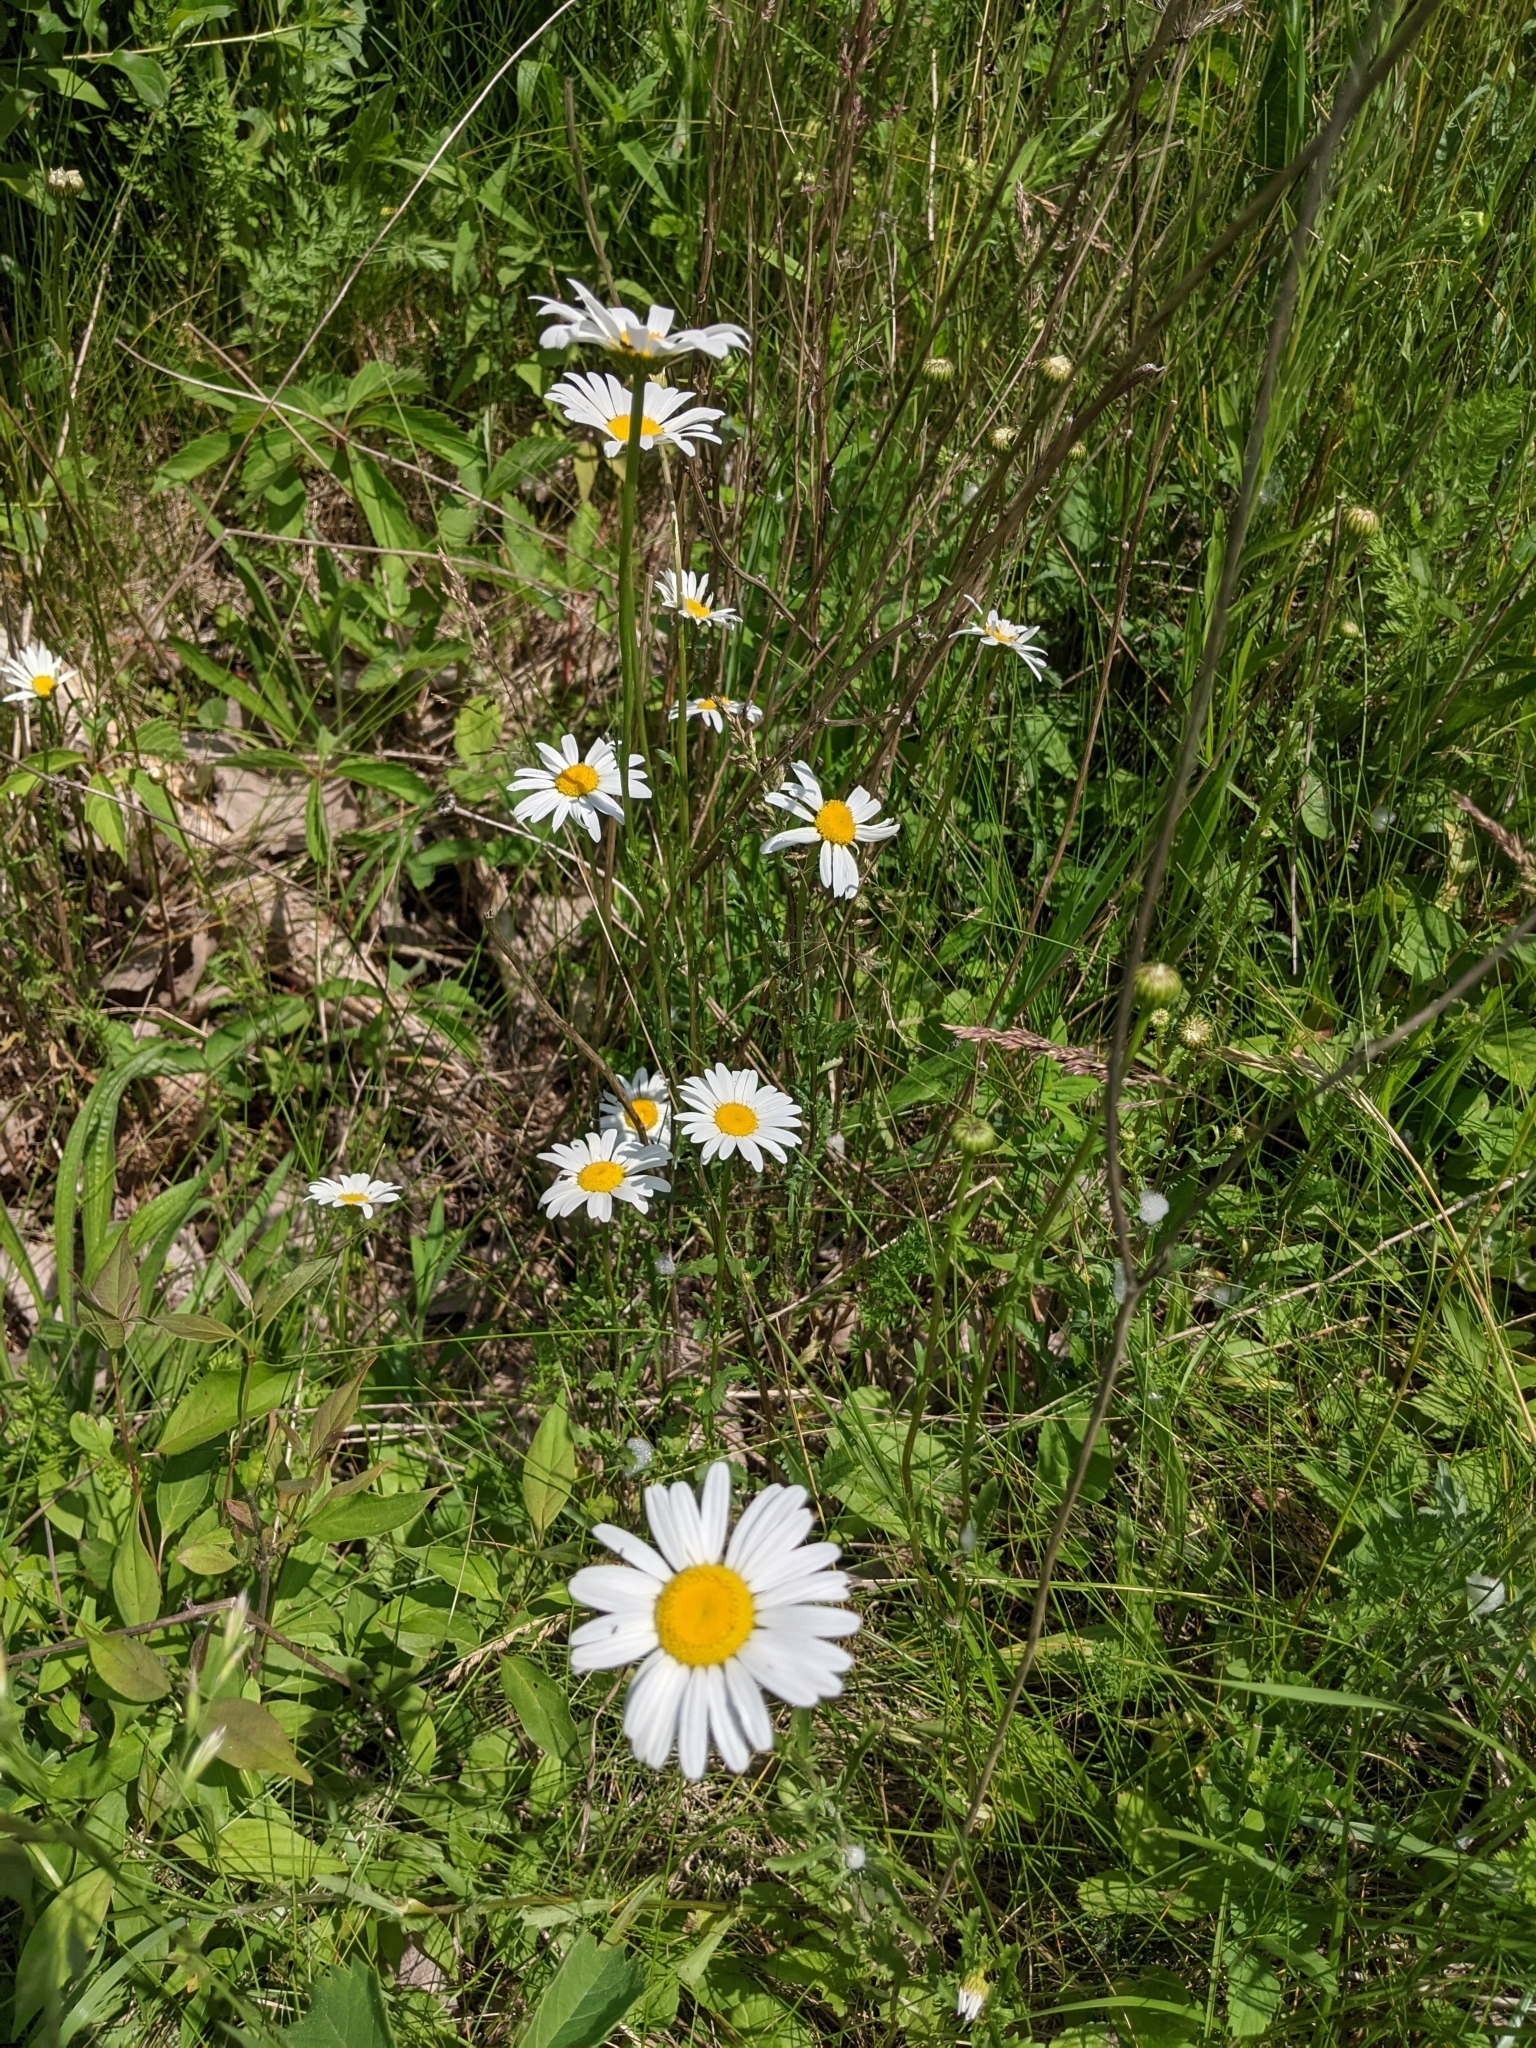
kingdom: Plantae
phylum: Tracheophyta
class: Magnoliopsida
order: Asterales
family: Asteraceae
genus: Leucanthemum
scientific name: Leucanthemum vulgare
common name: Oxeye daisy
